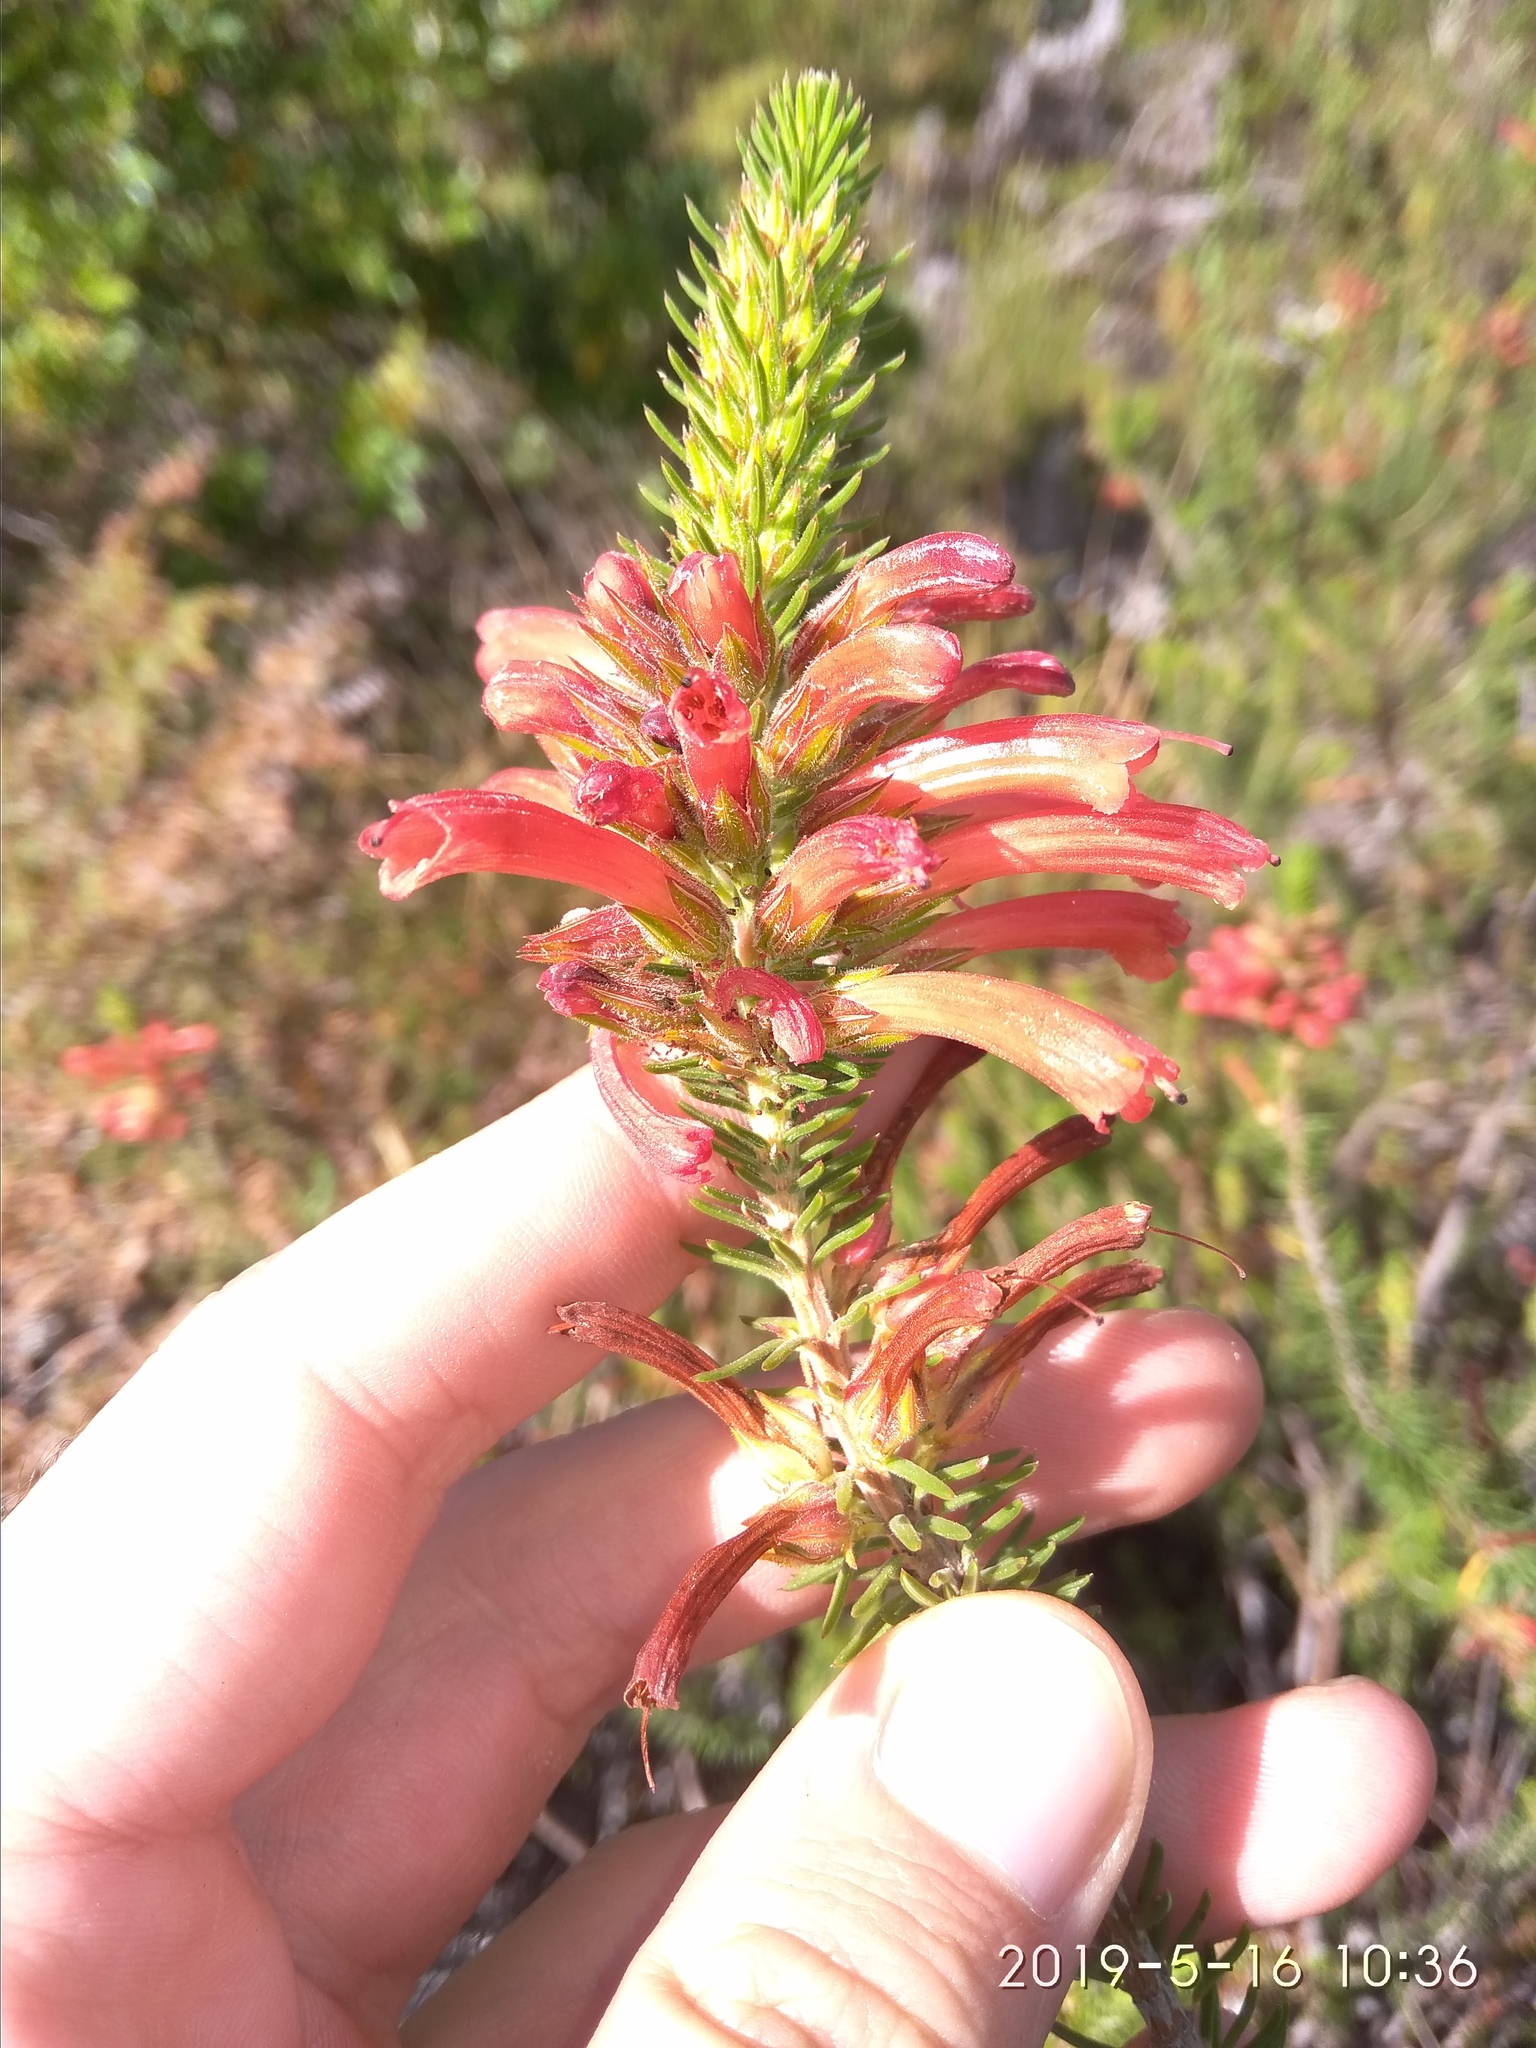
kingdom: Plantae
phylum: Tracheophyta
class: Magnoliopsida
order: Ericales
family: Ericaceae
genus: Erica
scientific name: Erica abietina
